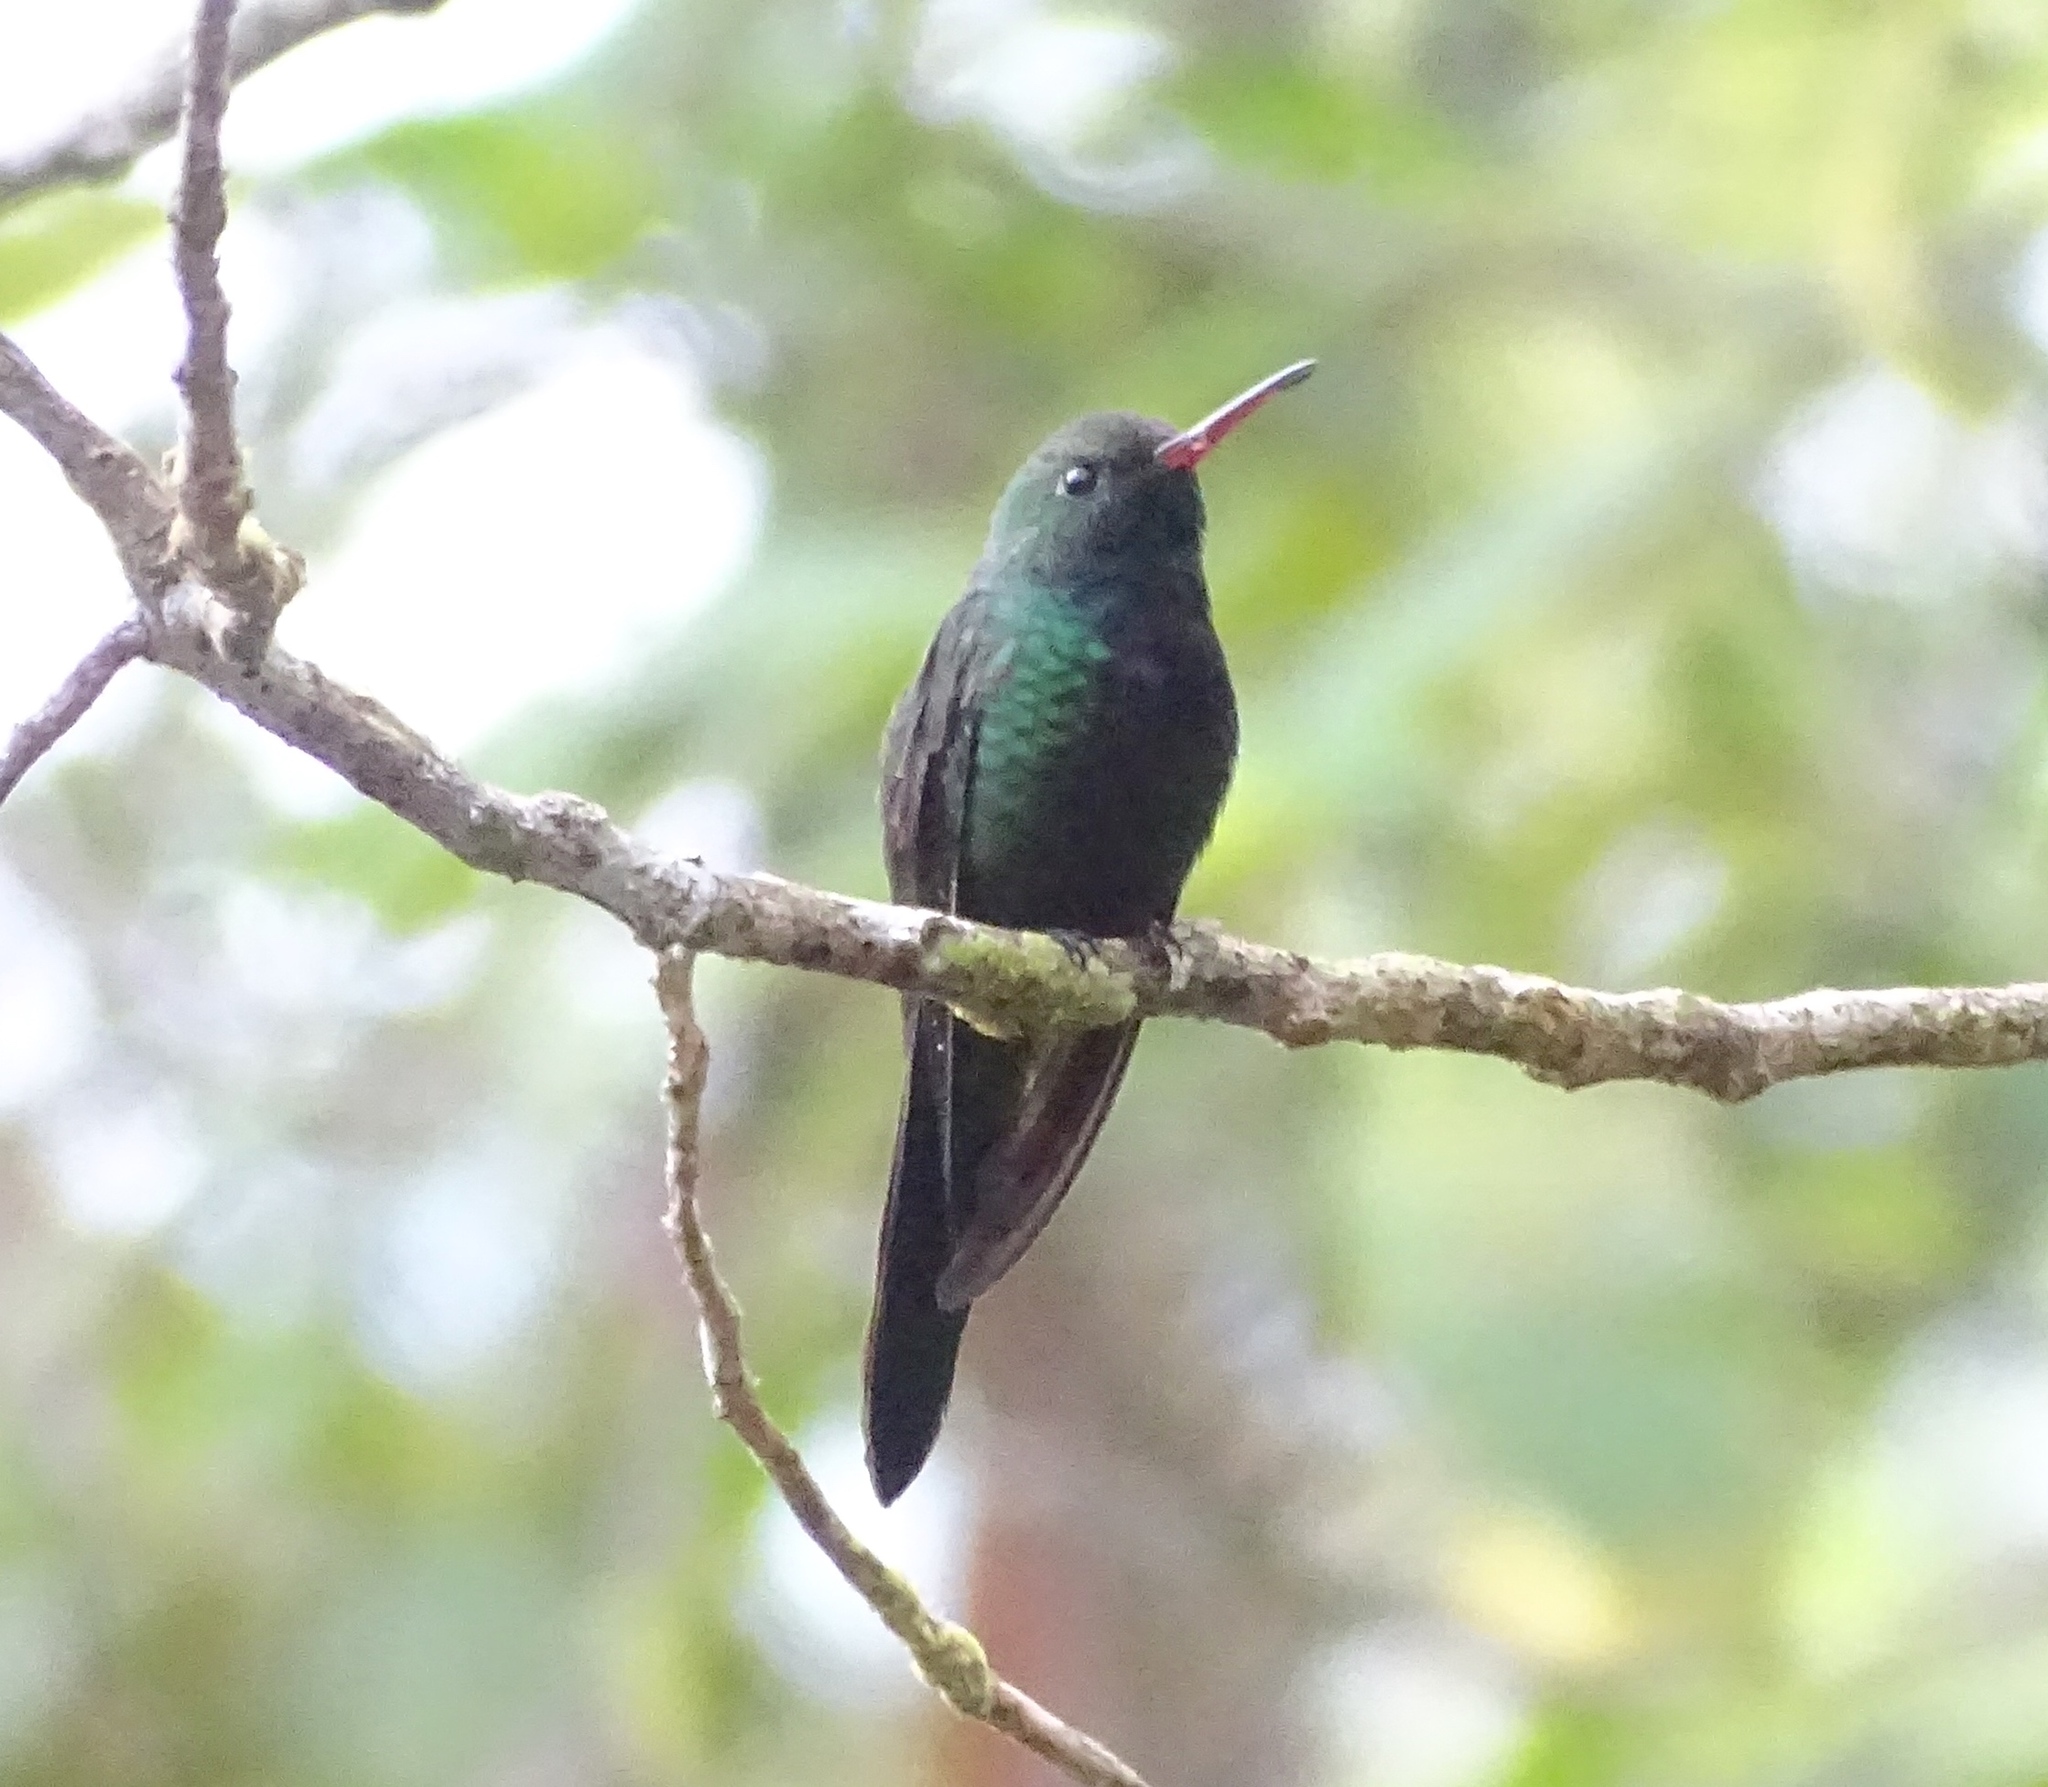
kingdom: Animalia
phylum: Chordata
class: Aves
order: Apodiformes
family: Trochilidae
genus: Riccordia
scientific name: Riccordia swainsonii
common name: Hispaniolan emerald
